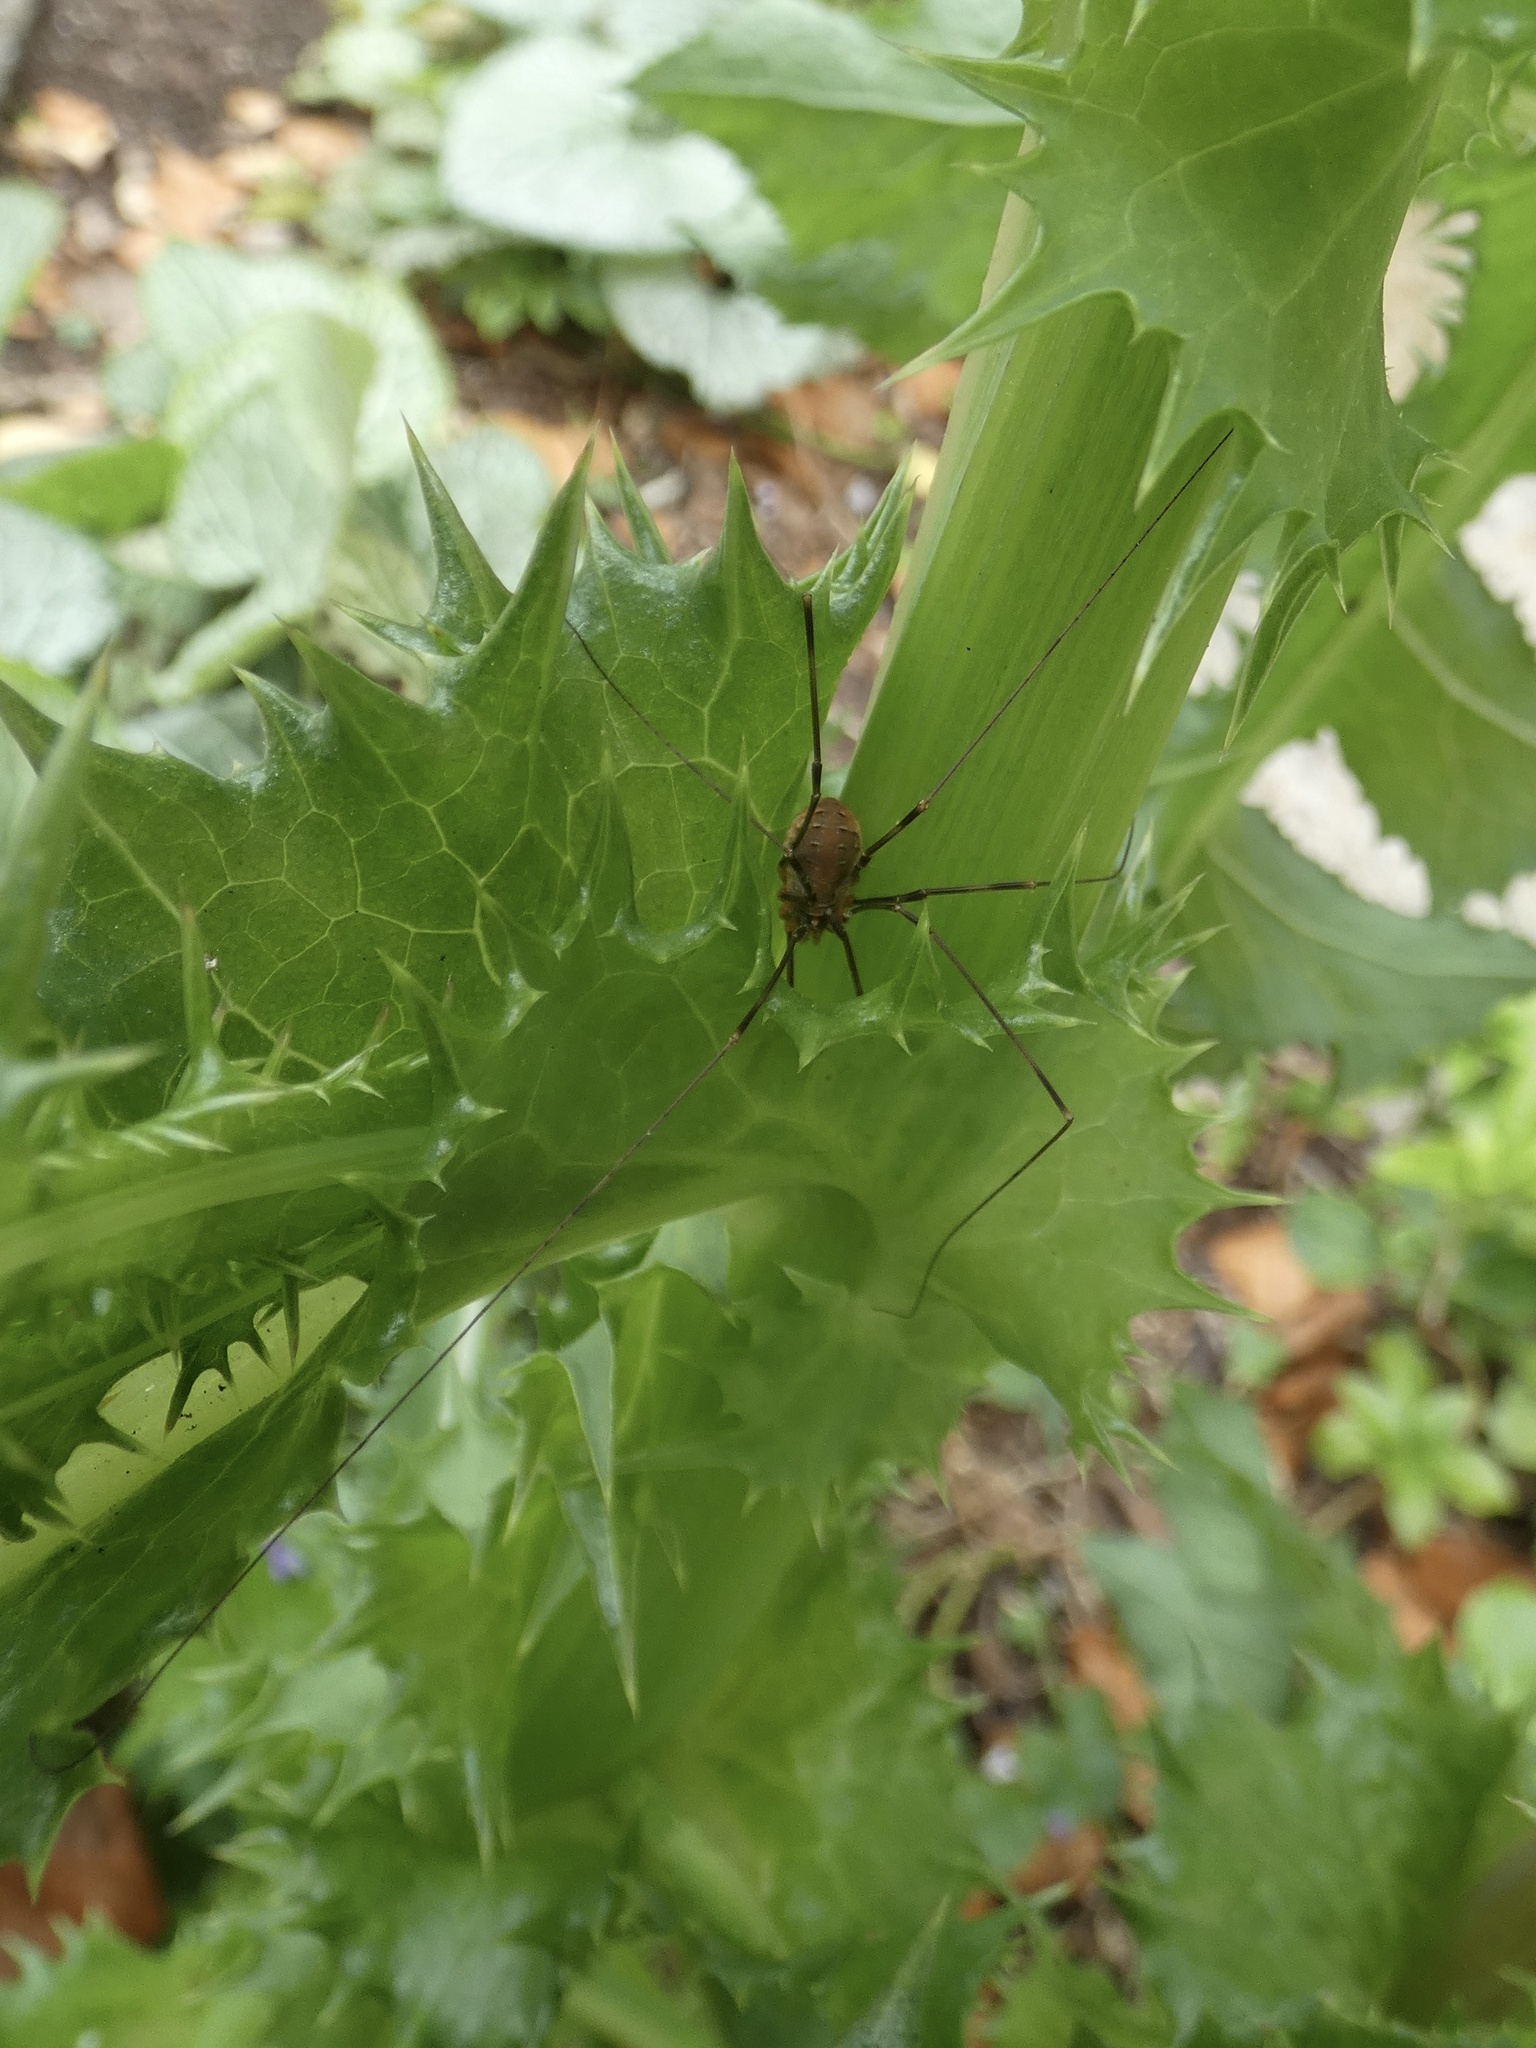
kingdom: Animalia
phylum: Arthropoda
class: Arachnida
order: Opiliones
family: Phalangiidae
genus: Opilio
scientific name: Opilio canestrinii
